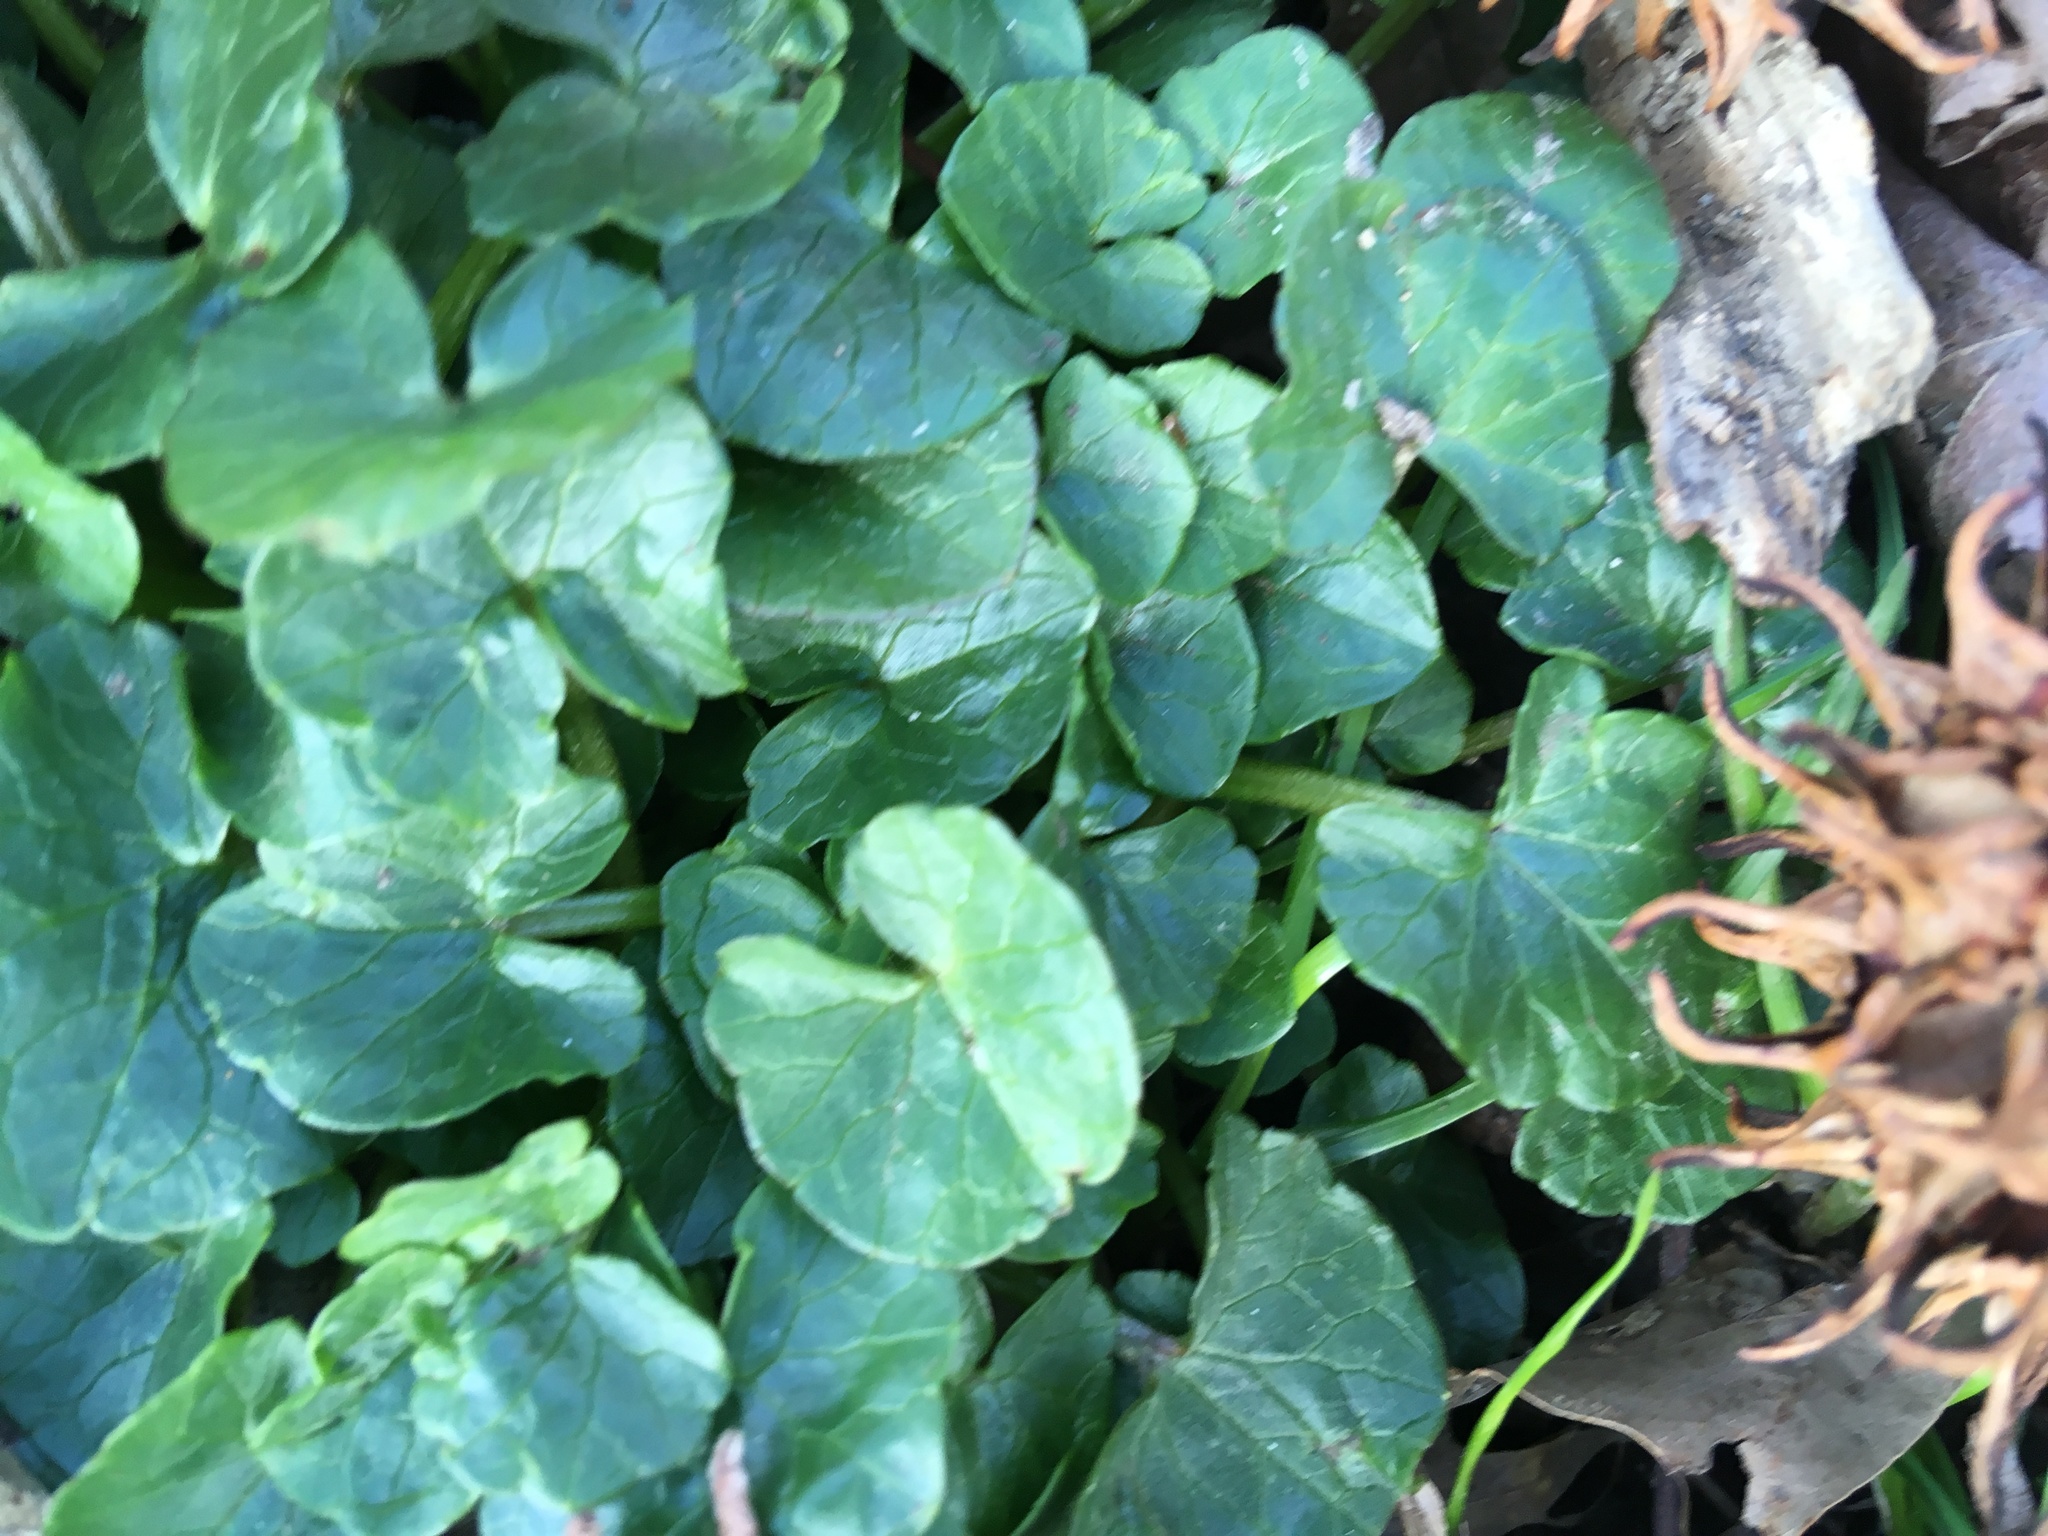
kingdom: Plantae
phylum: Tracheophyta
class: Magnoliopsida
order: Ranunculales
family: Ranunculaceae
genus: Ficaria
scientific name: Ficaria verna
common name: Lesser celandine
